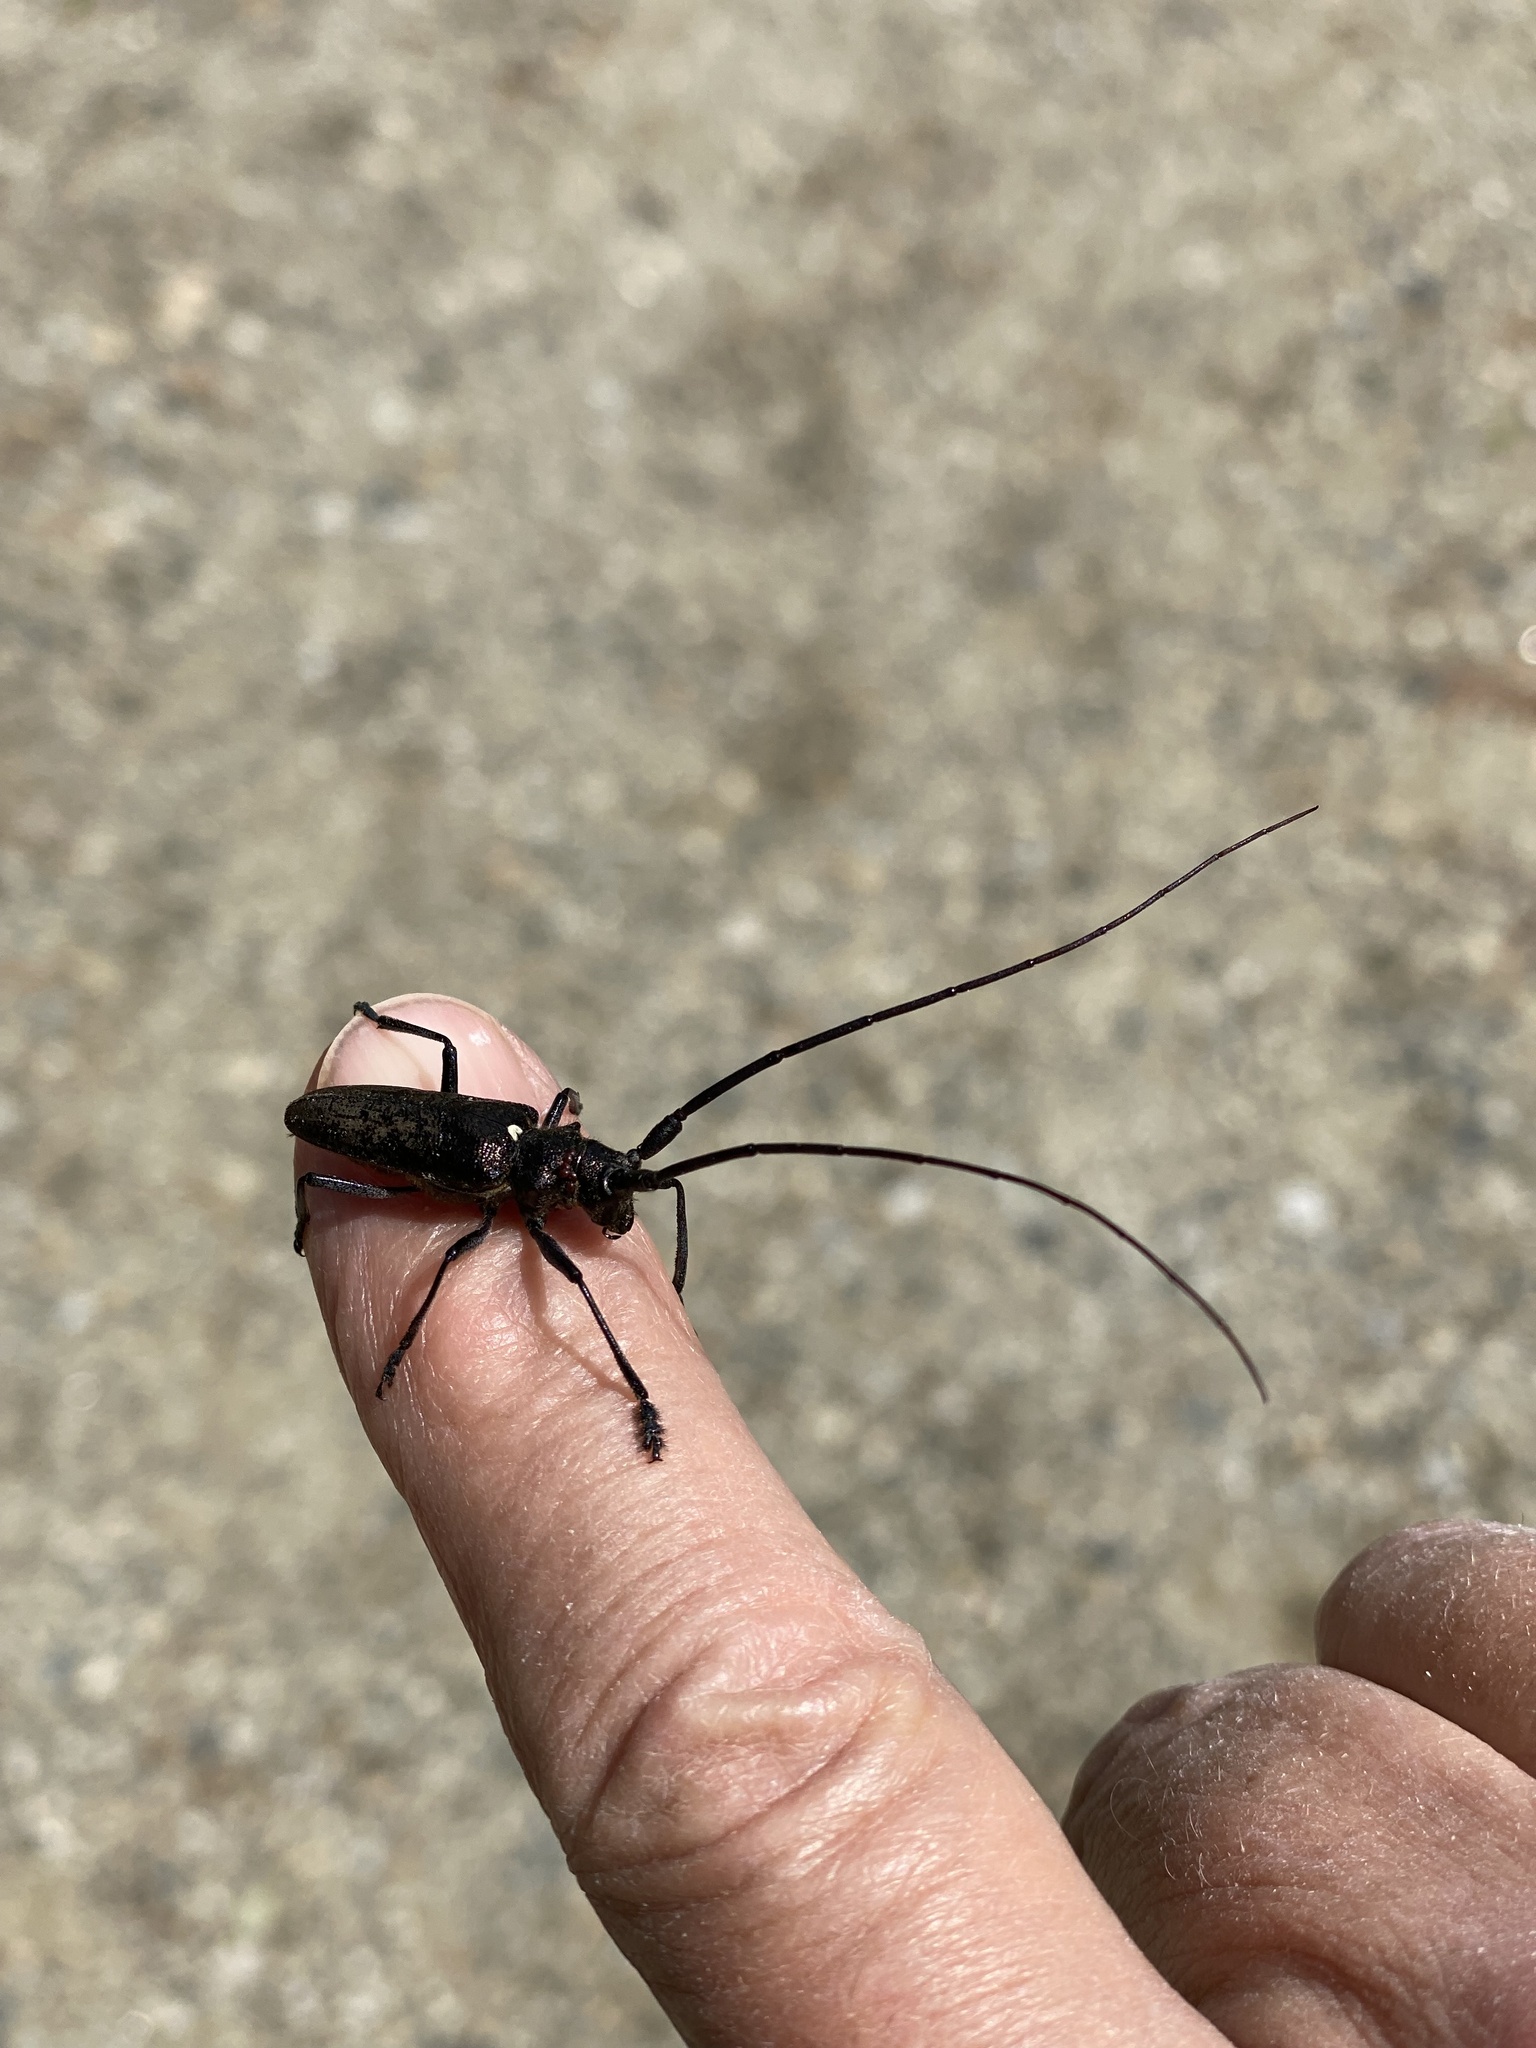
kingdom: Animalia
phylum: Arthropoda
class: Insecta
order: Coleoptera
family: Cerambycidae
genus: Monochamus
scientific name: Monochamus scutellatus
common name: White-spotted sawyer beetle
